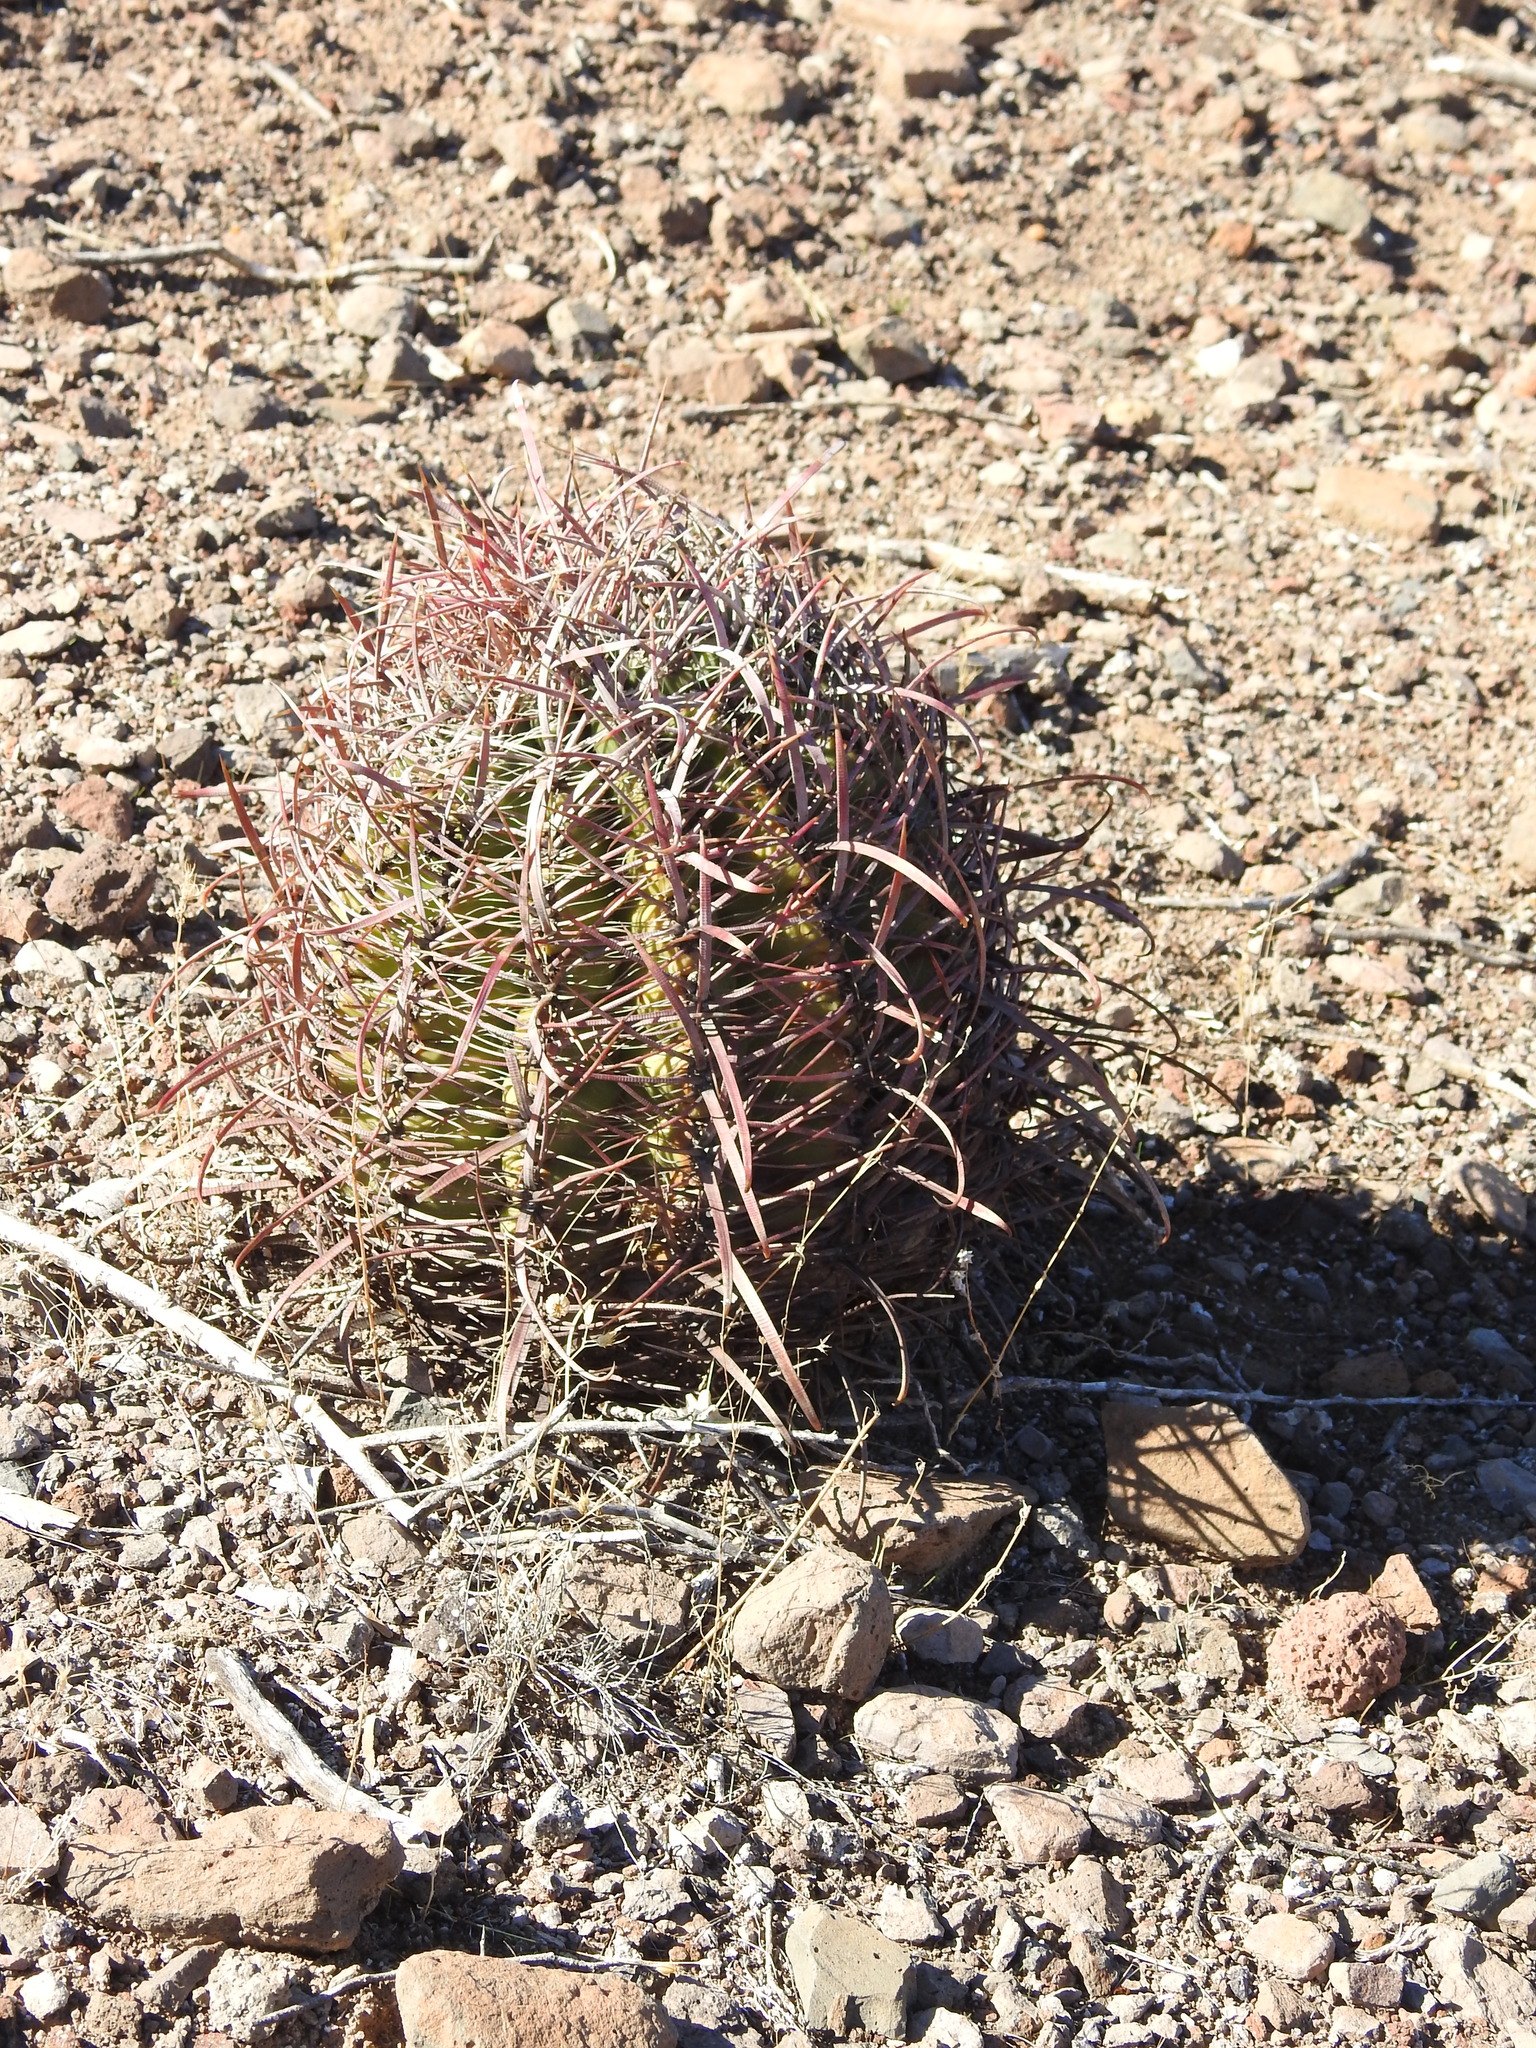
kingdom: Plantae
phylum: Tracheophyta
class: Magnoliopsida
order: Caryophyllales
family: Cactaceae
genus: Ferocactus
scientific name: Ferocactus cylindraceus
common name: California barrel cactus
